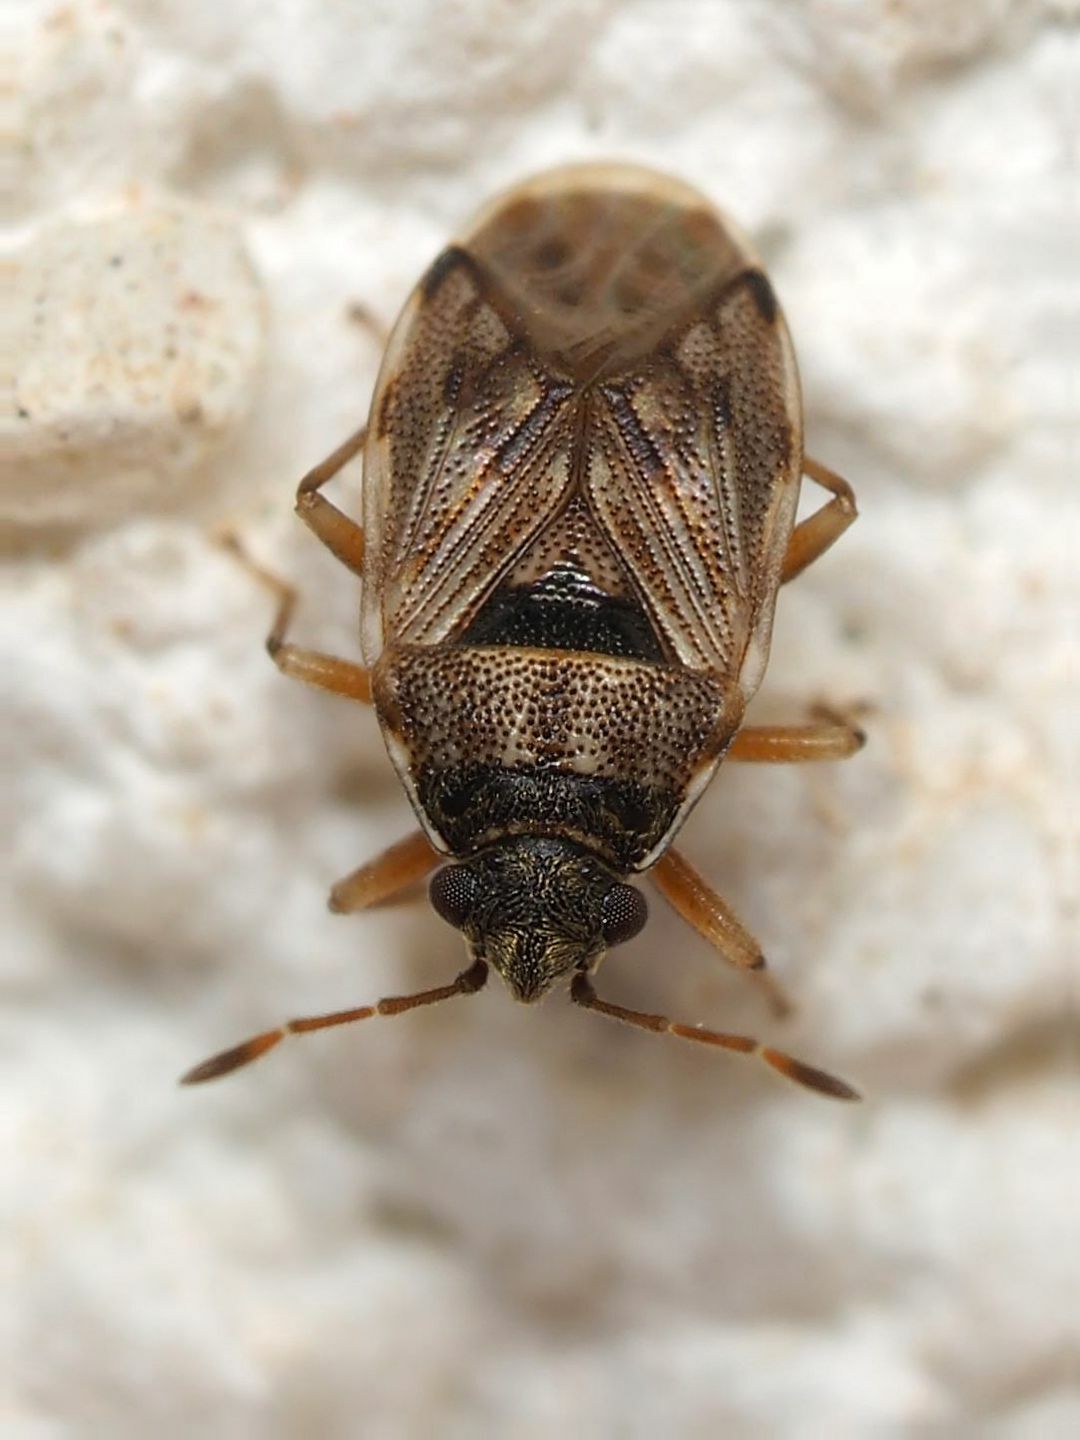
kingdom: Animalia
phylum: Arthropoda
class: Insecta
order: Hemiptera
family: Rhyparochromidae
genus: Hyalochilus
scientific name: Hyalochilus ovatulus
